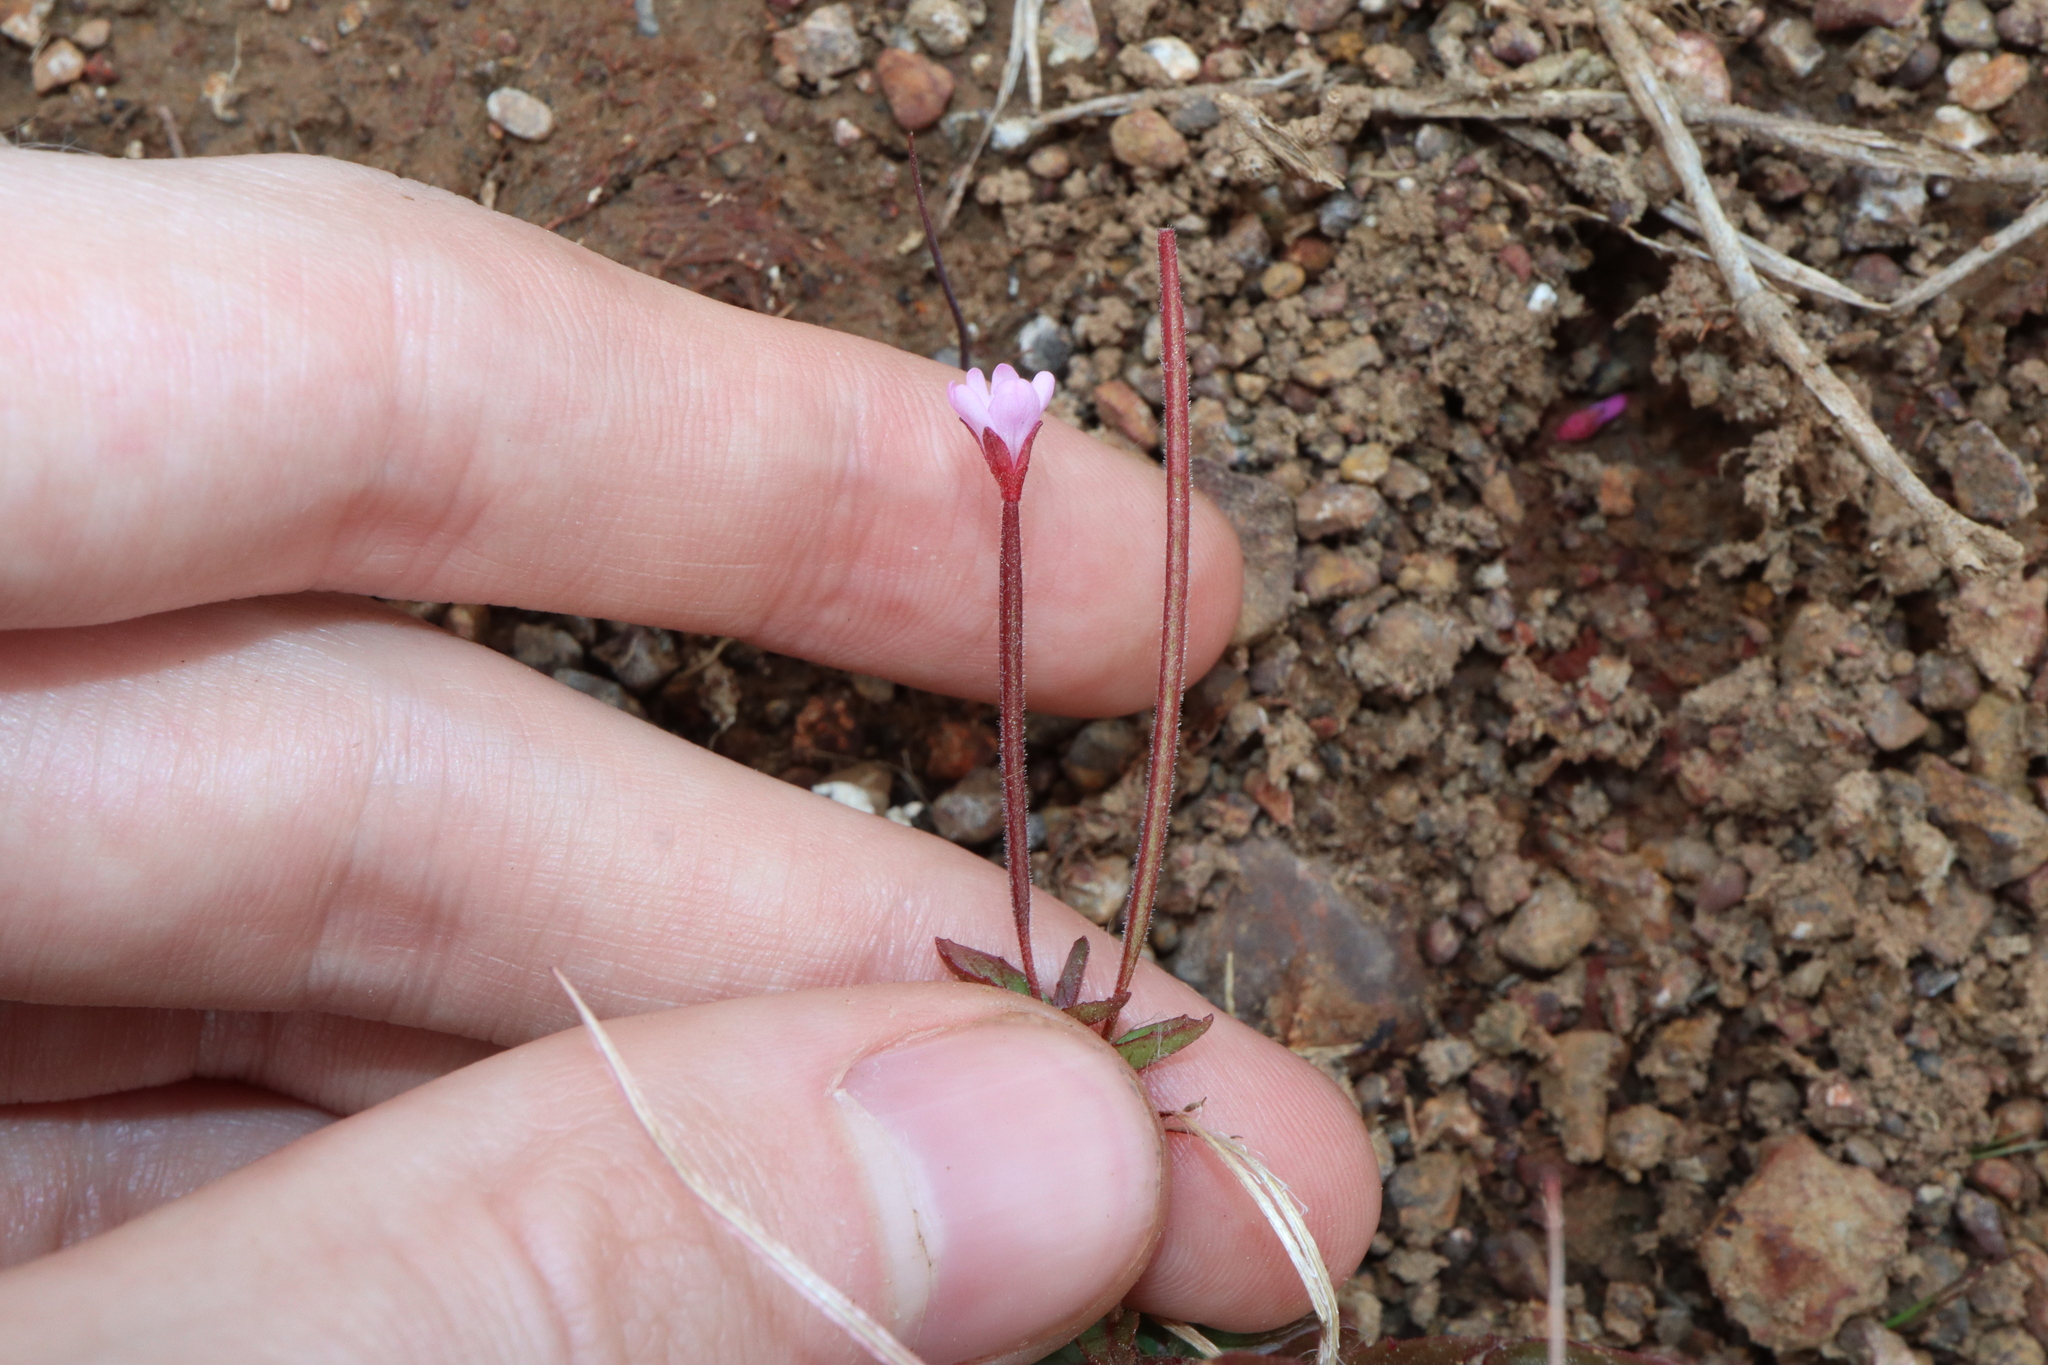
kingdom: Plantae
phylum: Tracheophyta
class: Magnoliopsida
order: Myrtales
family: Onagraceae
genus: Epilobium
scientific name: Epilobium ciliatum
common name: American willowherb
